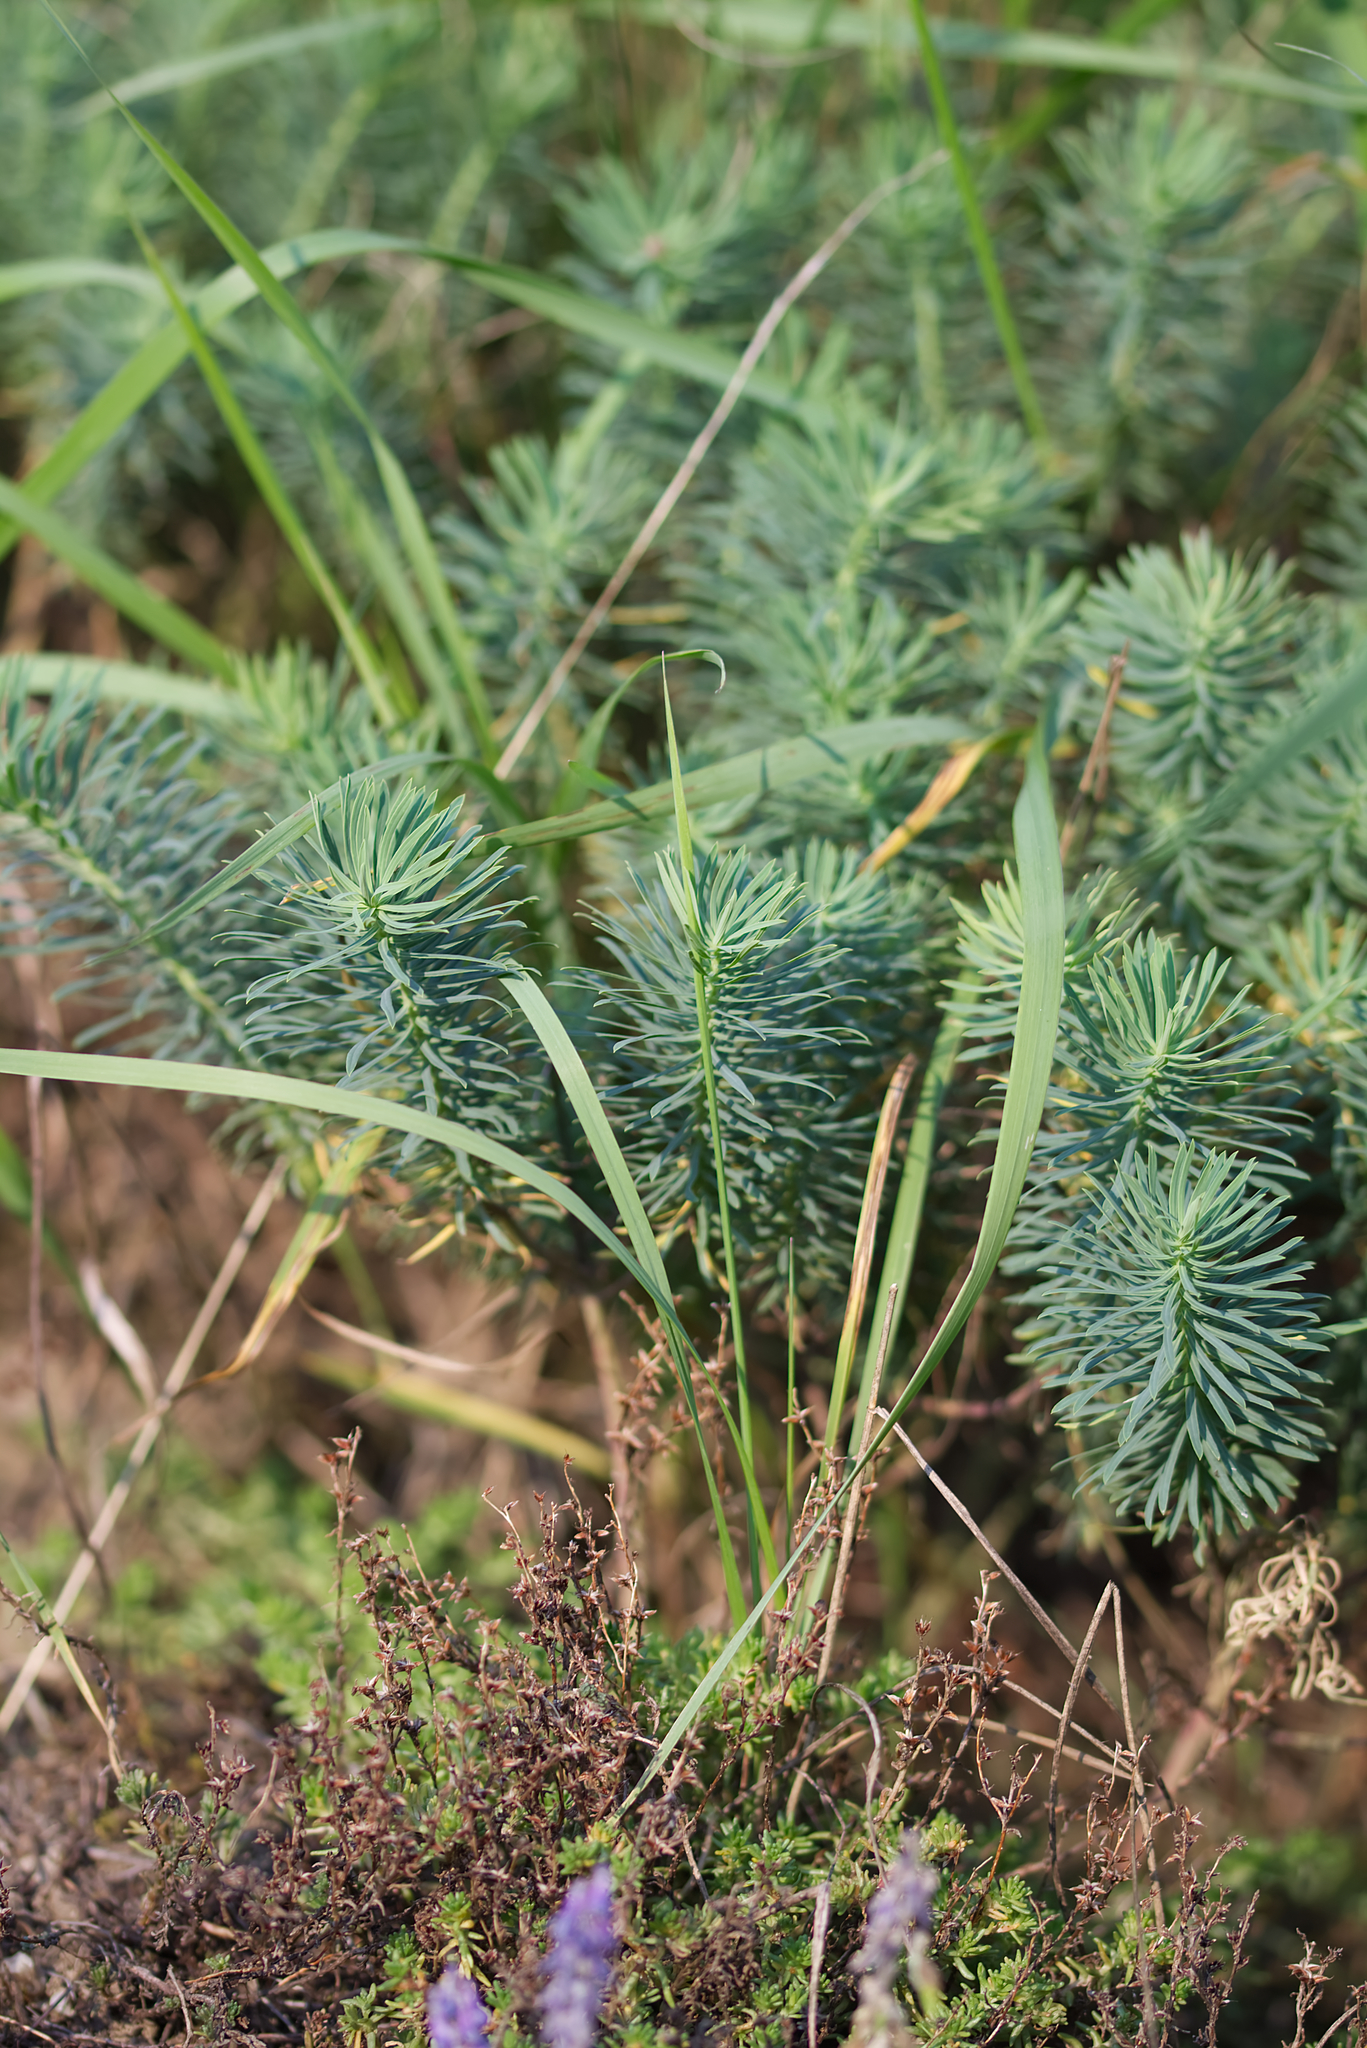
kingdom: Plantae
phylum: Tracheophyta
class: Magnoliopsida
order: Malpighiales
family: Euphorbiaceae
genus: Euphorbia
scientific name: Euphorbia cyparissias
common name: Cypress spurge
